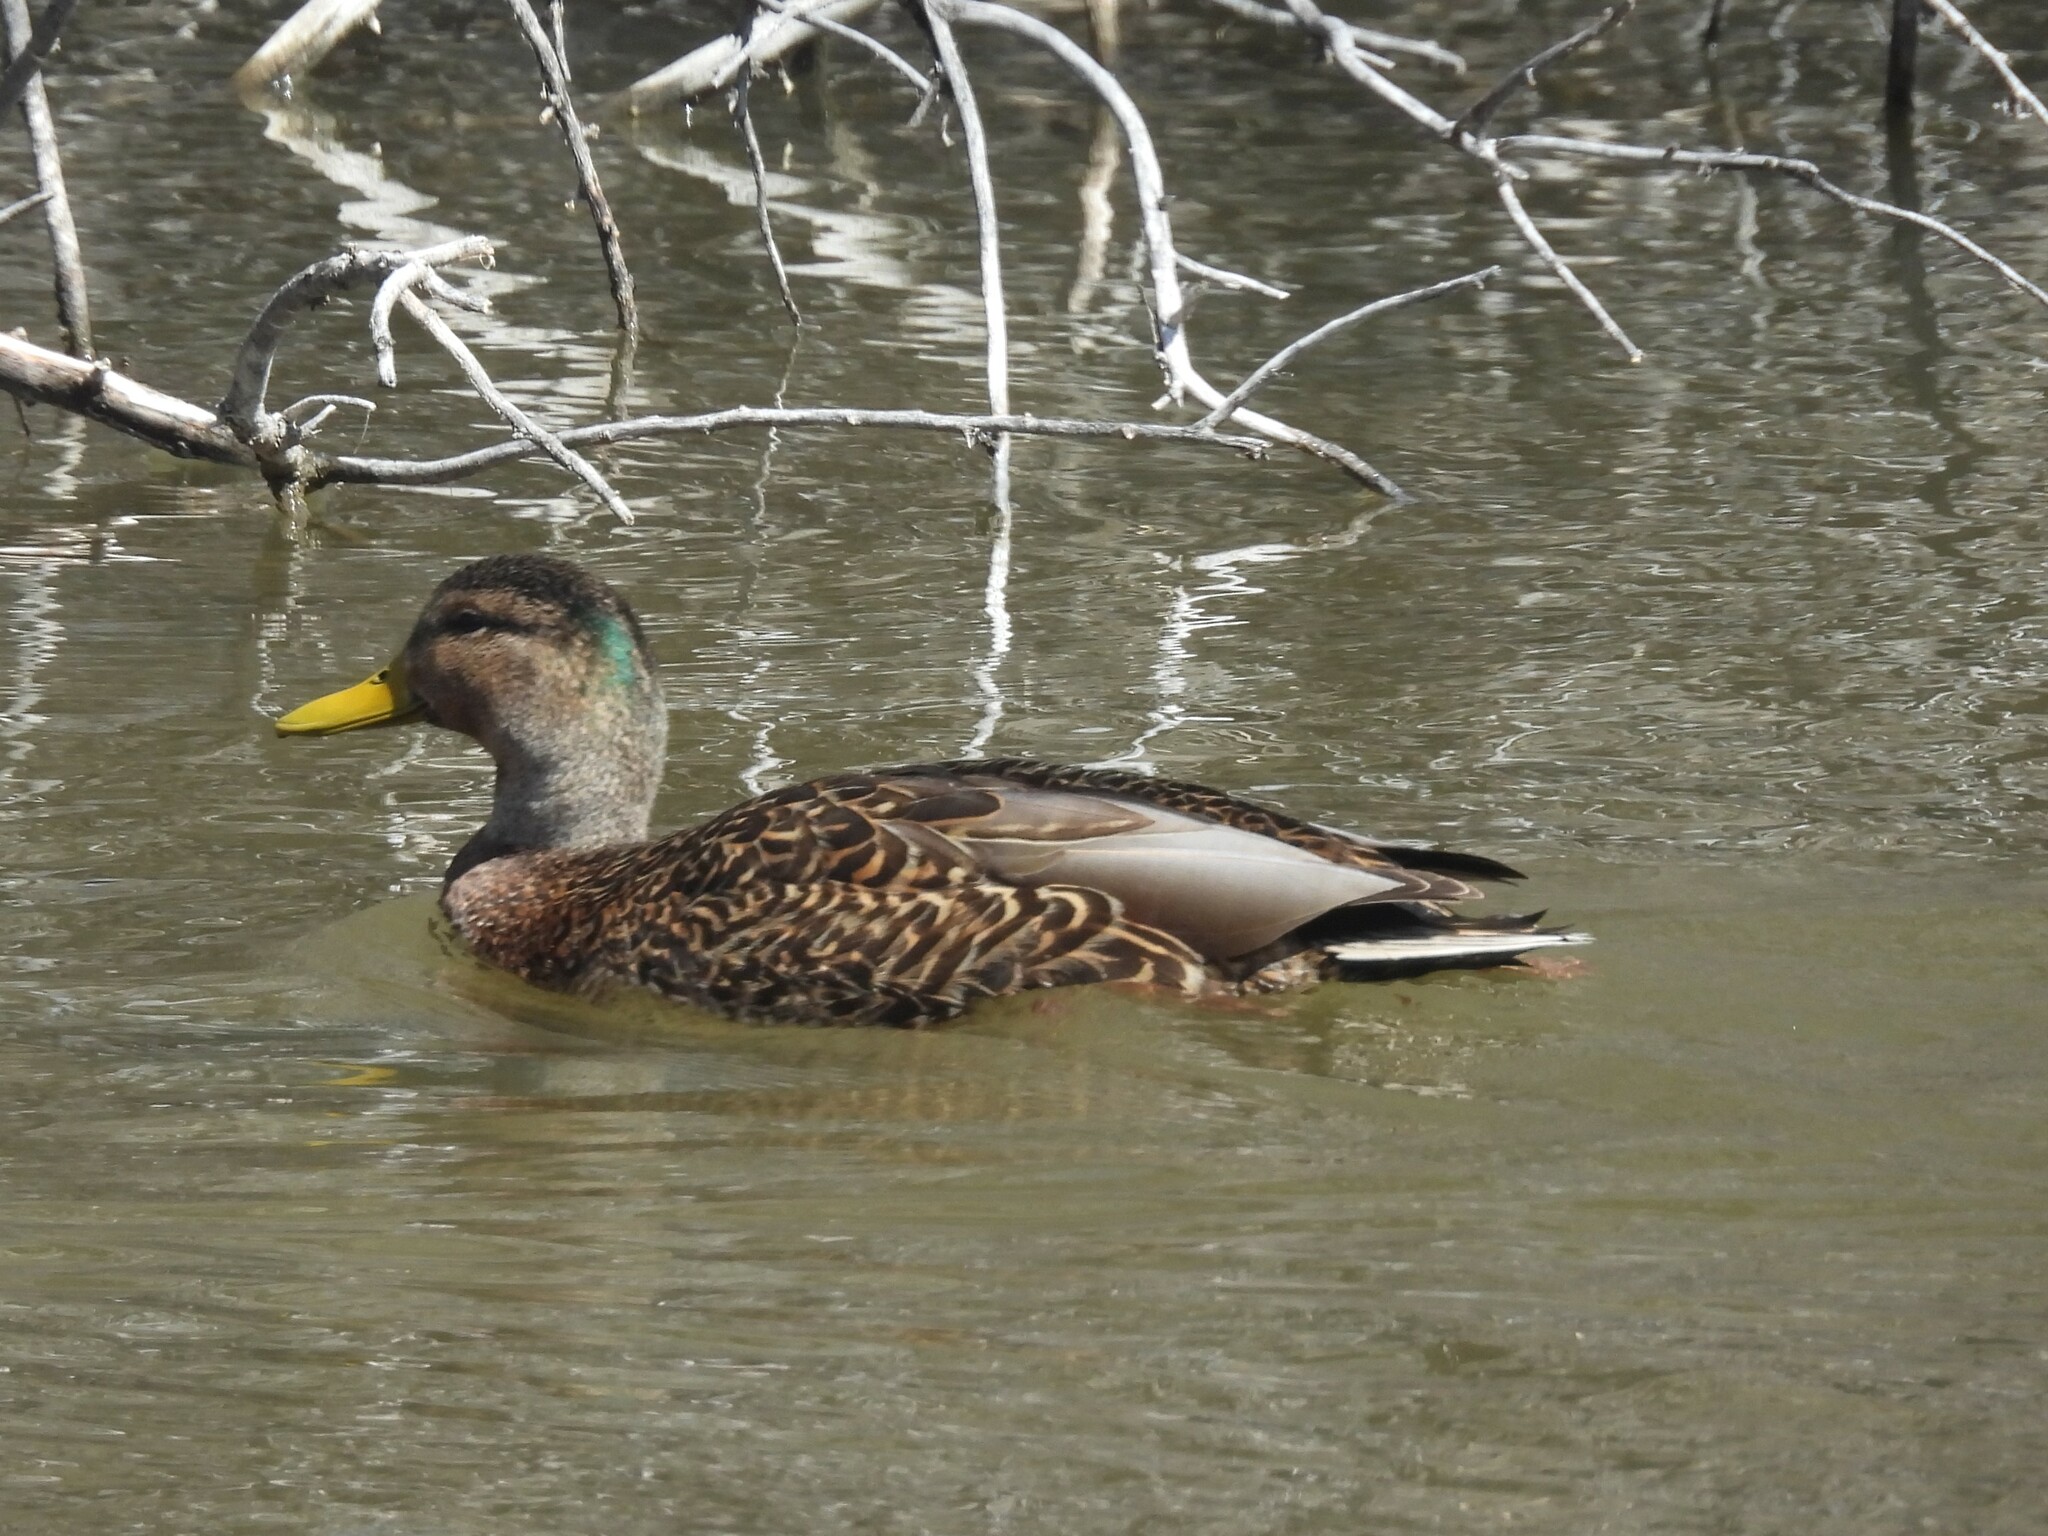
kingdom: Animalia
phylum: Chordata
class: Aves
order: Anseriformes
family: Anatidae
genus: Anas
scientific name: Anas
